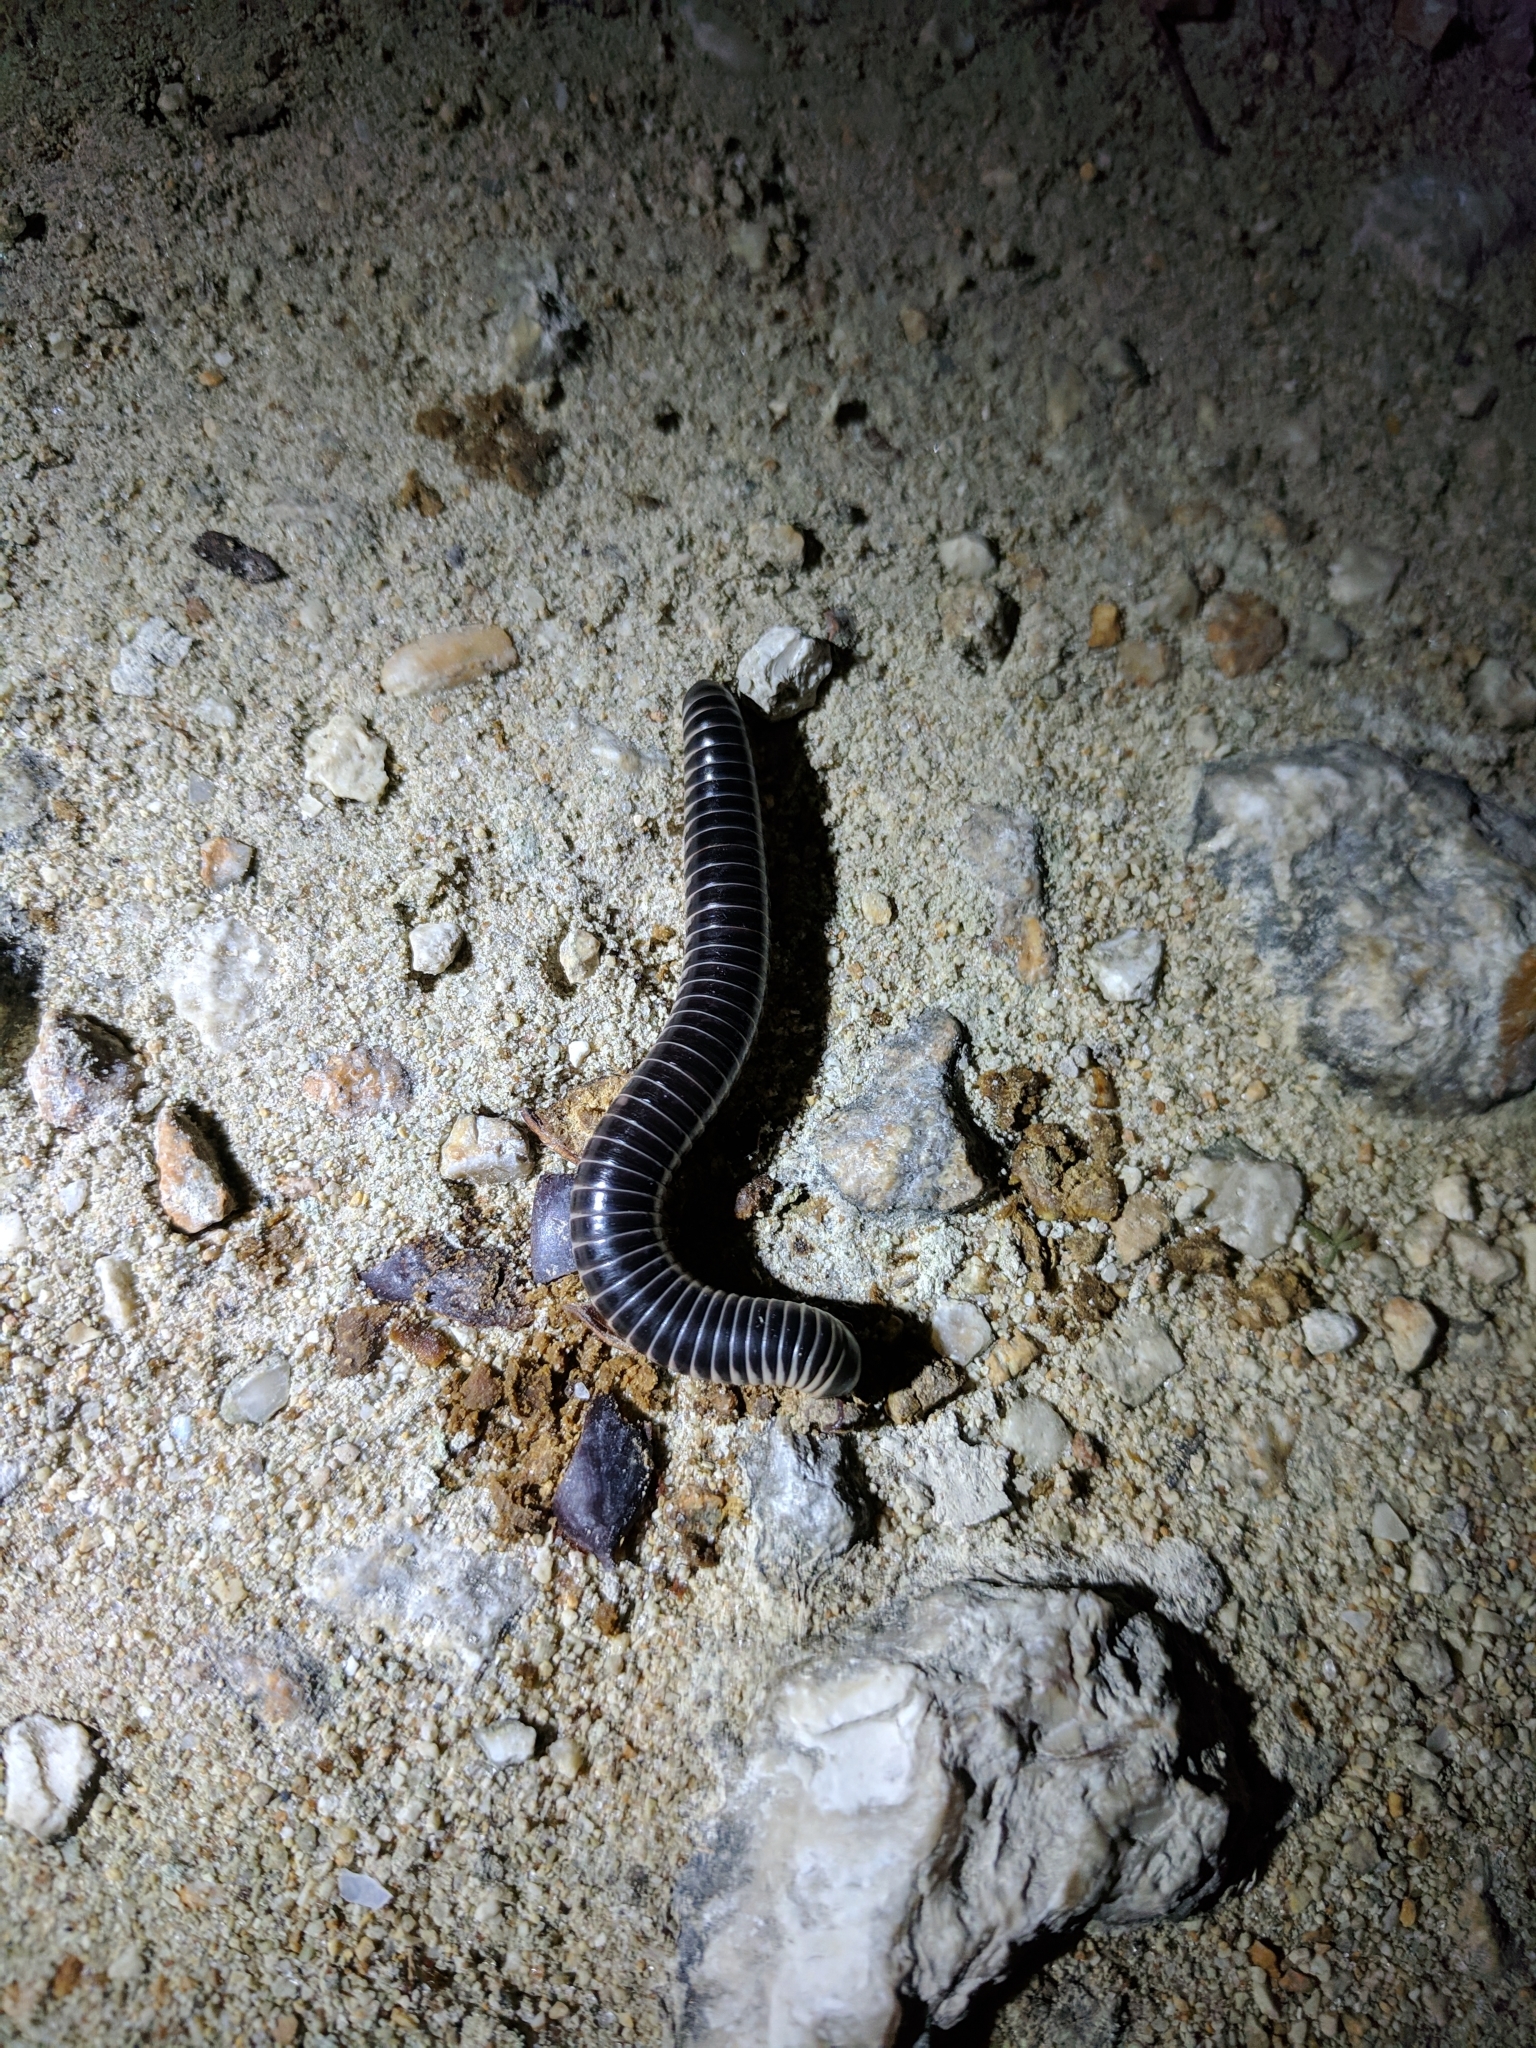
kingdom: Animalia
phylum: Arthropoda
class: Diplopoda
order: Spirobolida
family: Spirobolidae
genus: Chicobolus
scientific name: Chicobolus spinigerus
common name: Florida ivory millipede
